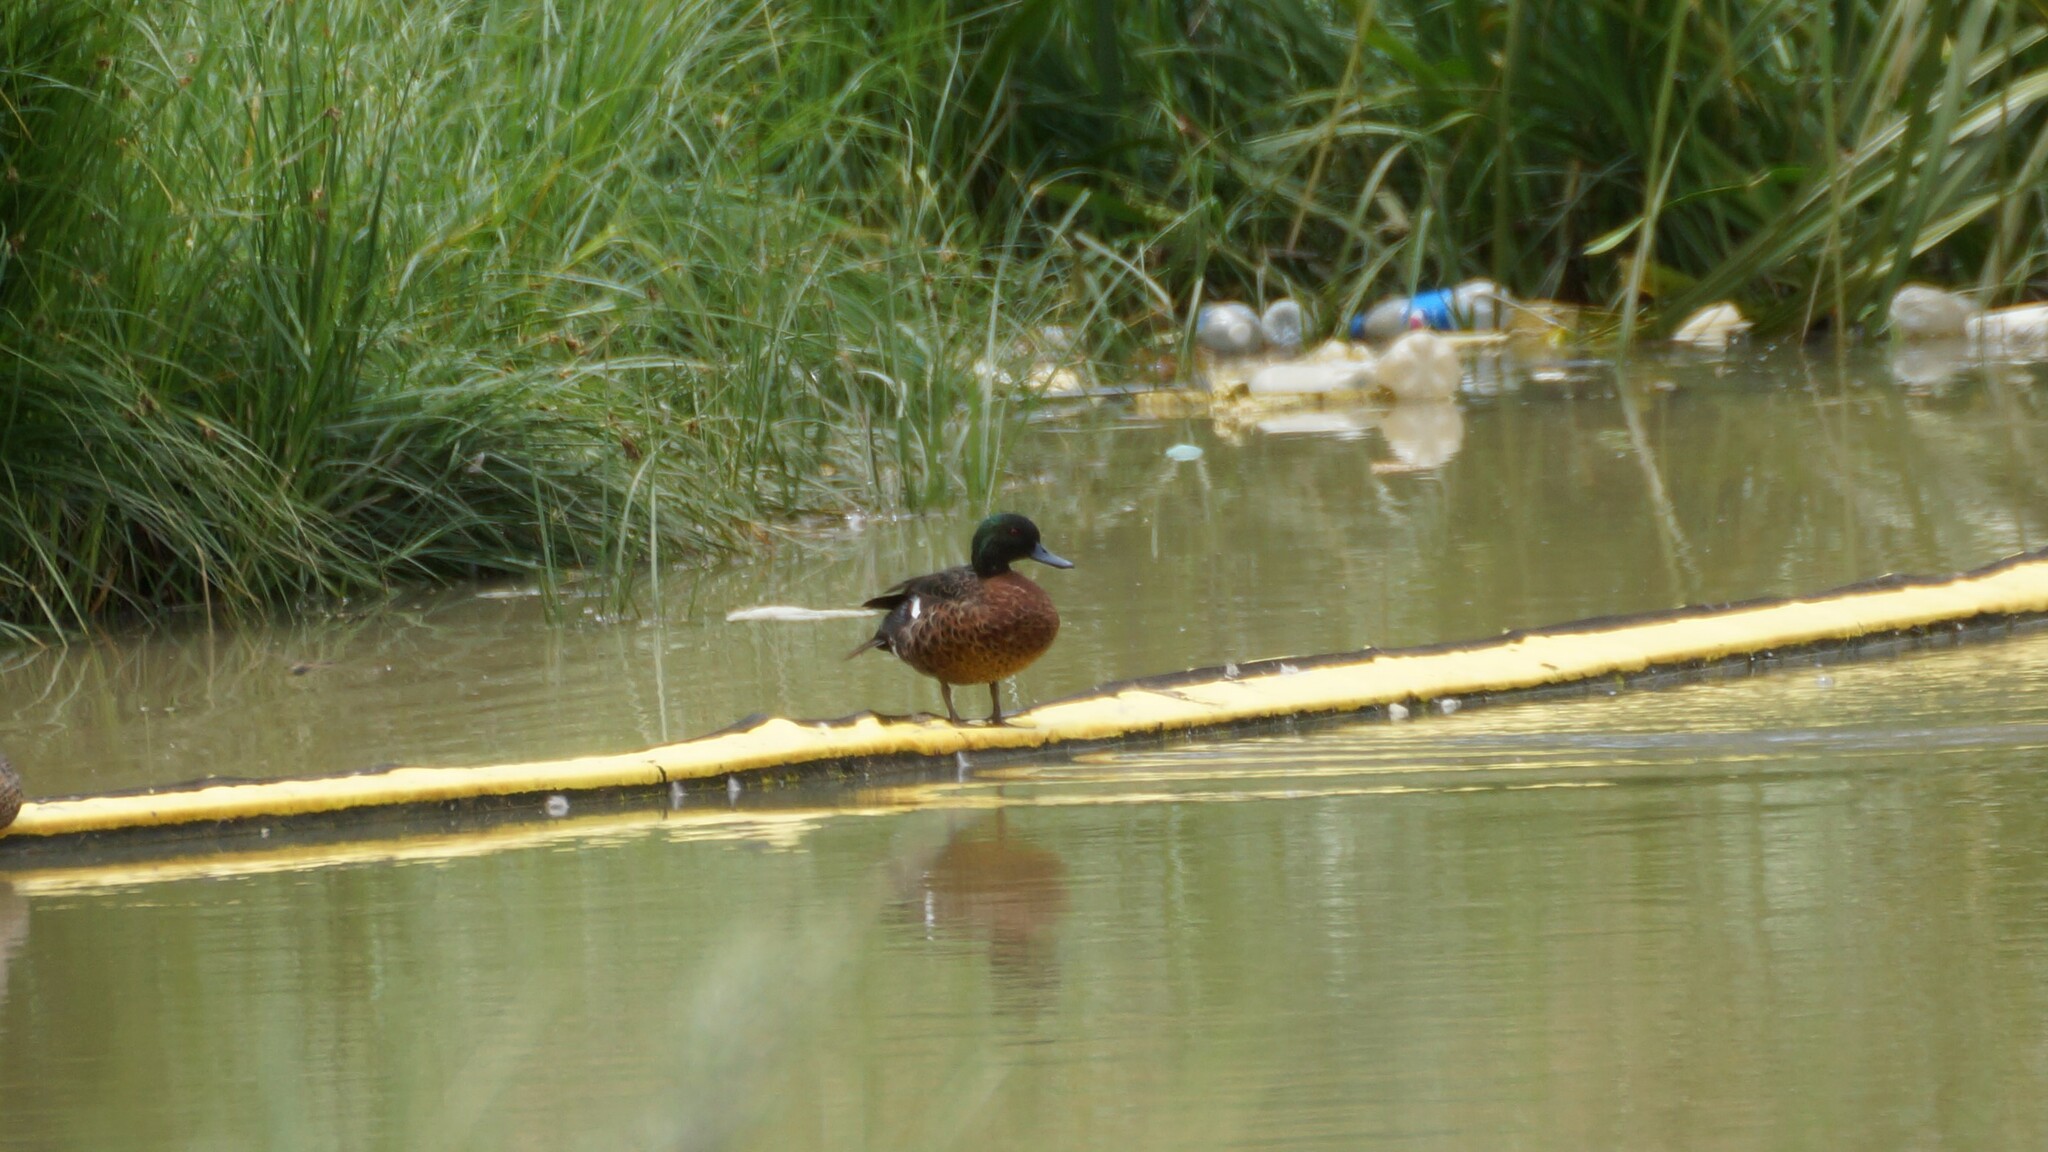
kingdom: Animalia
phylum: Chordata
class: Aves
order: Anseriformes
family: Anatidae
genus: Anas
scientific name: Anas castanea
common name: Chestnut teal
